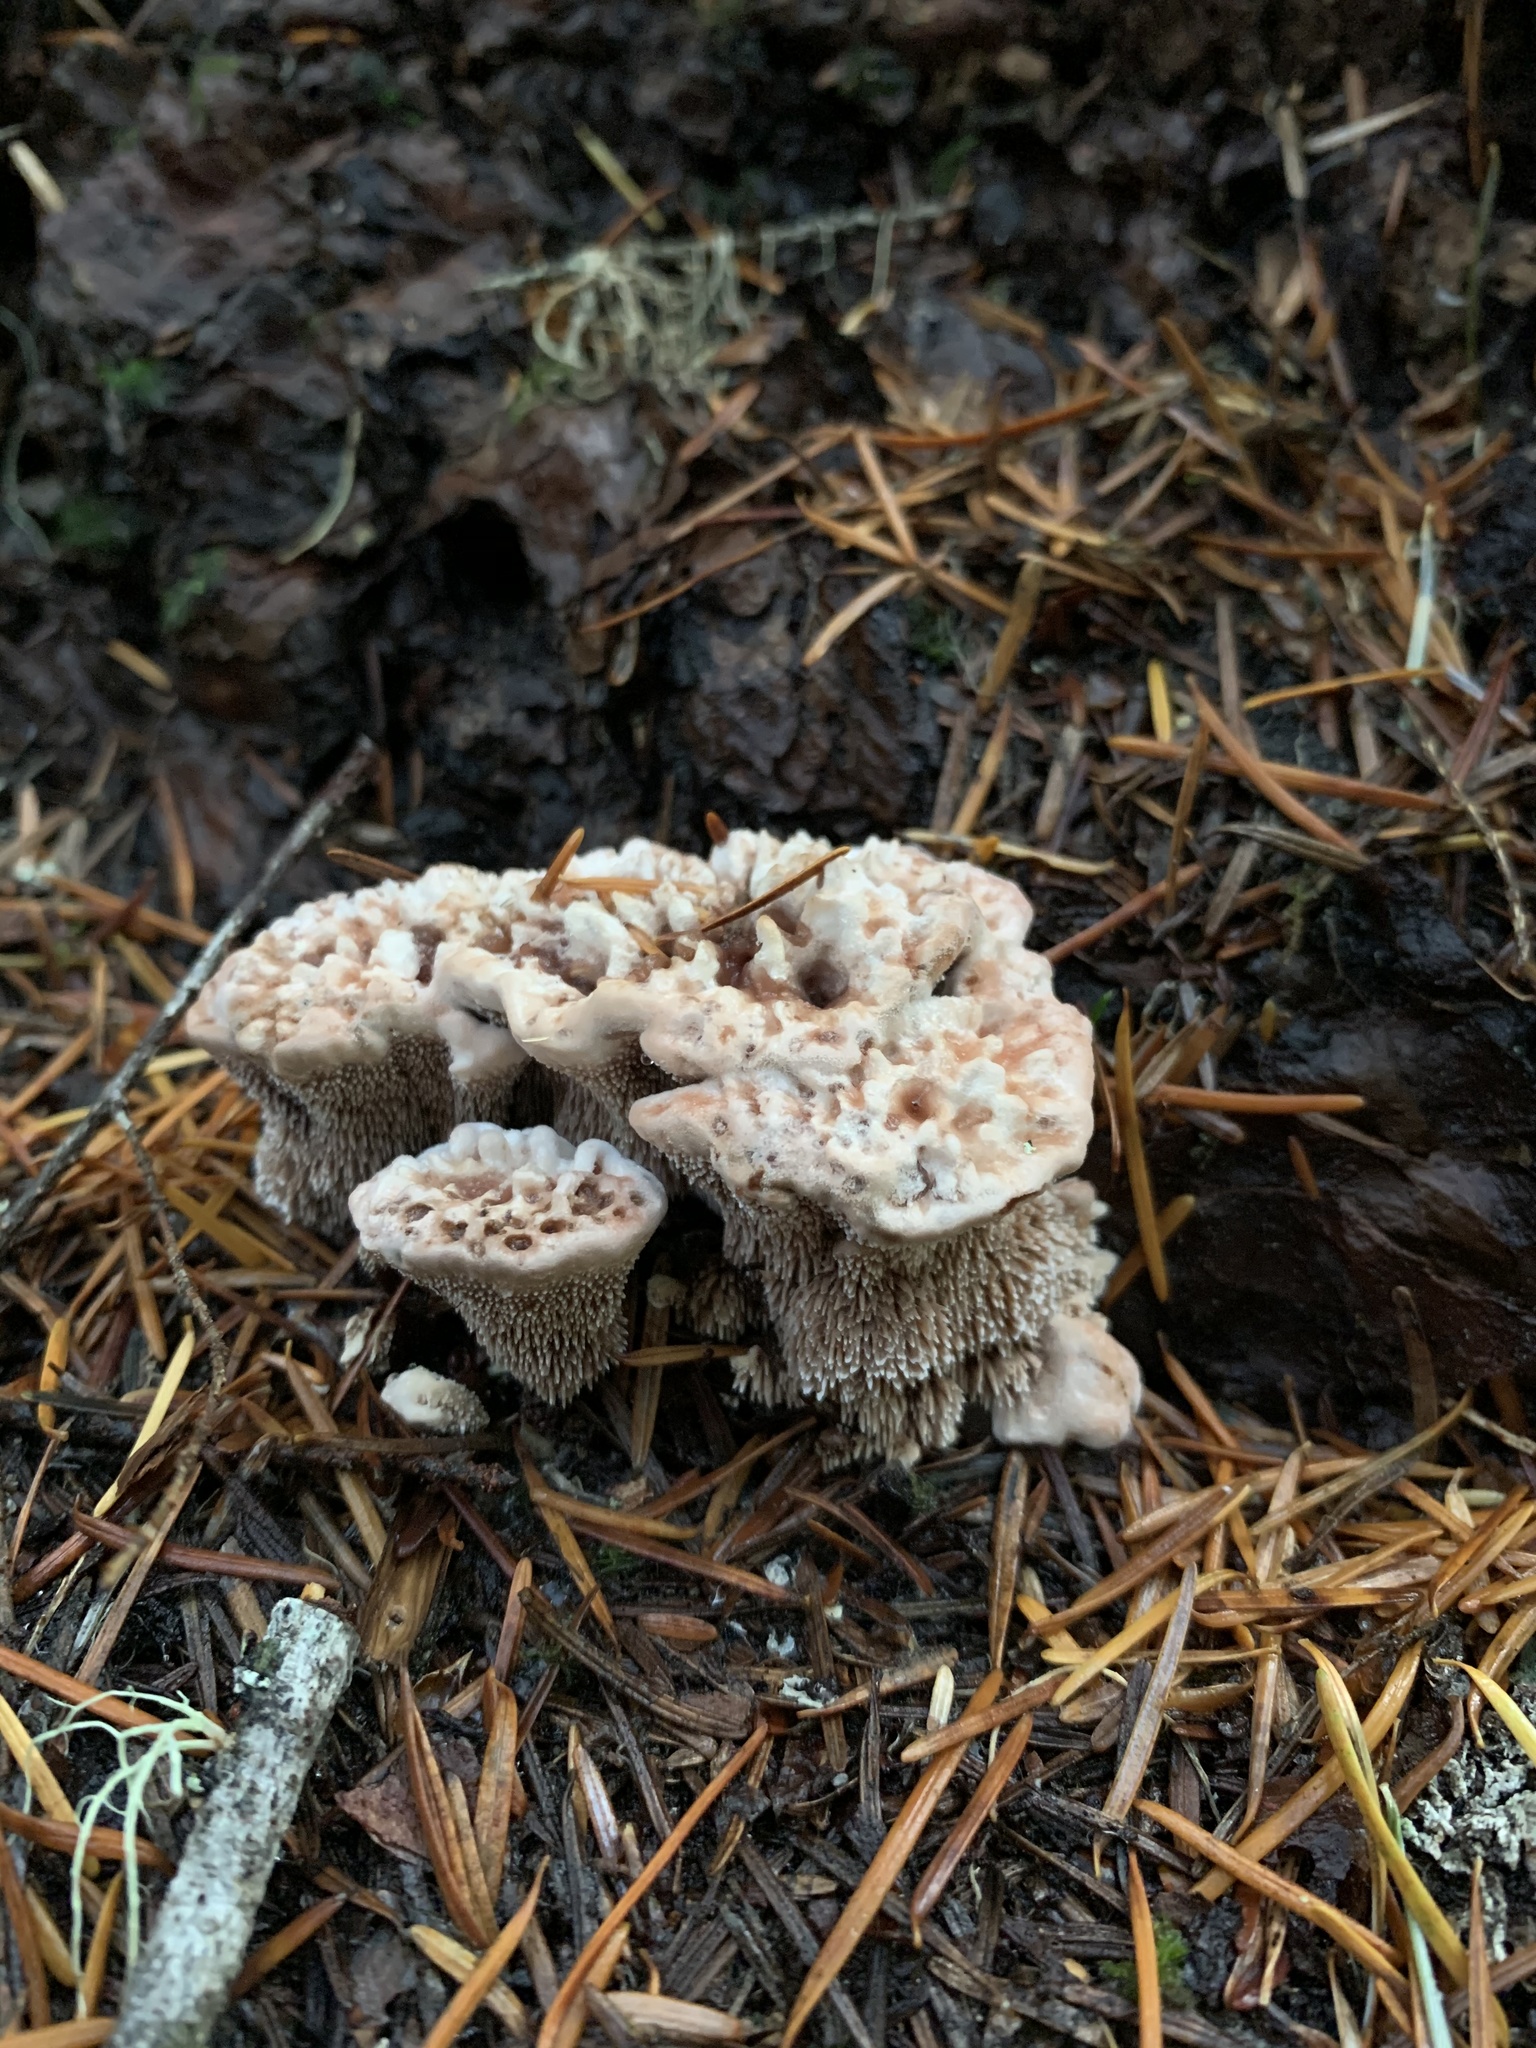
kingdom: Fungi
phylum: Basidiomycota
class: Agaricomycetes
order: Thelephorales
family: Bankeraceae
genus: Hydnellum
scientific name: Hydnellum peckii
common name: Devil's tooth
